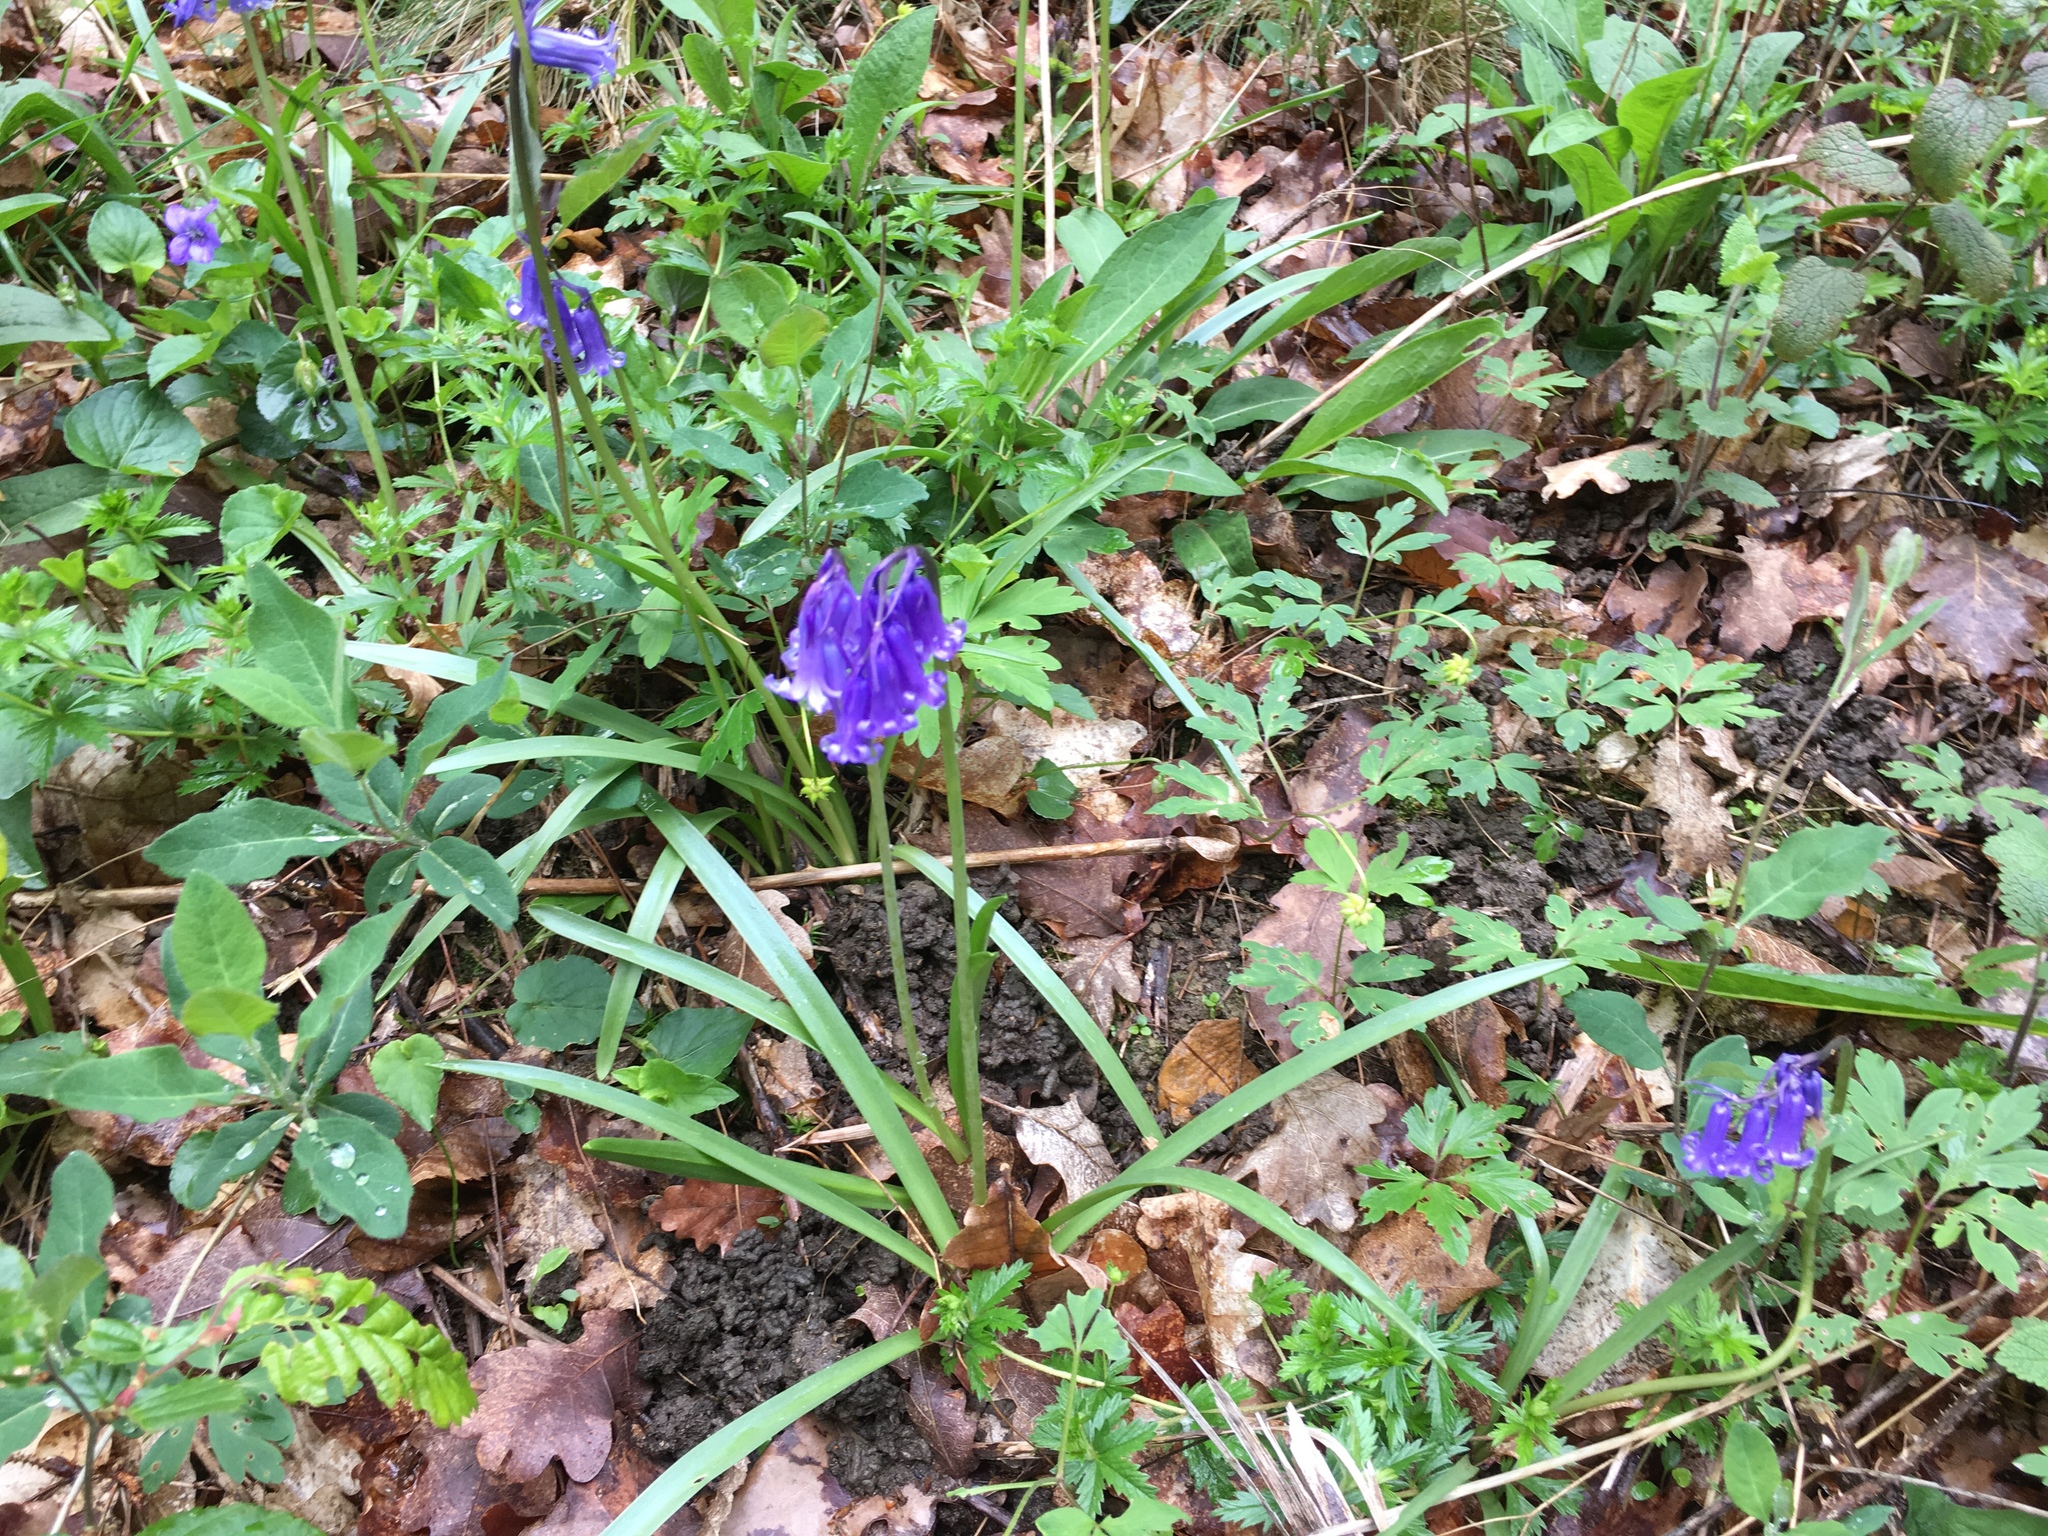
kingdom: Plantae
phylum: Tracheophyta
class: Liliopsida
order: Asparagales
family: Asparagaceae
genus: Hyacinthoides
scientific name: Hyacinthoides non-scripta
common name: Bluebell
